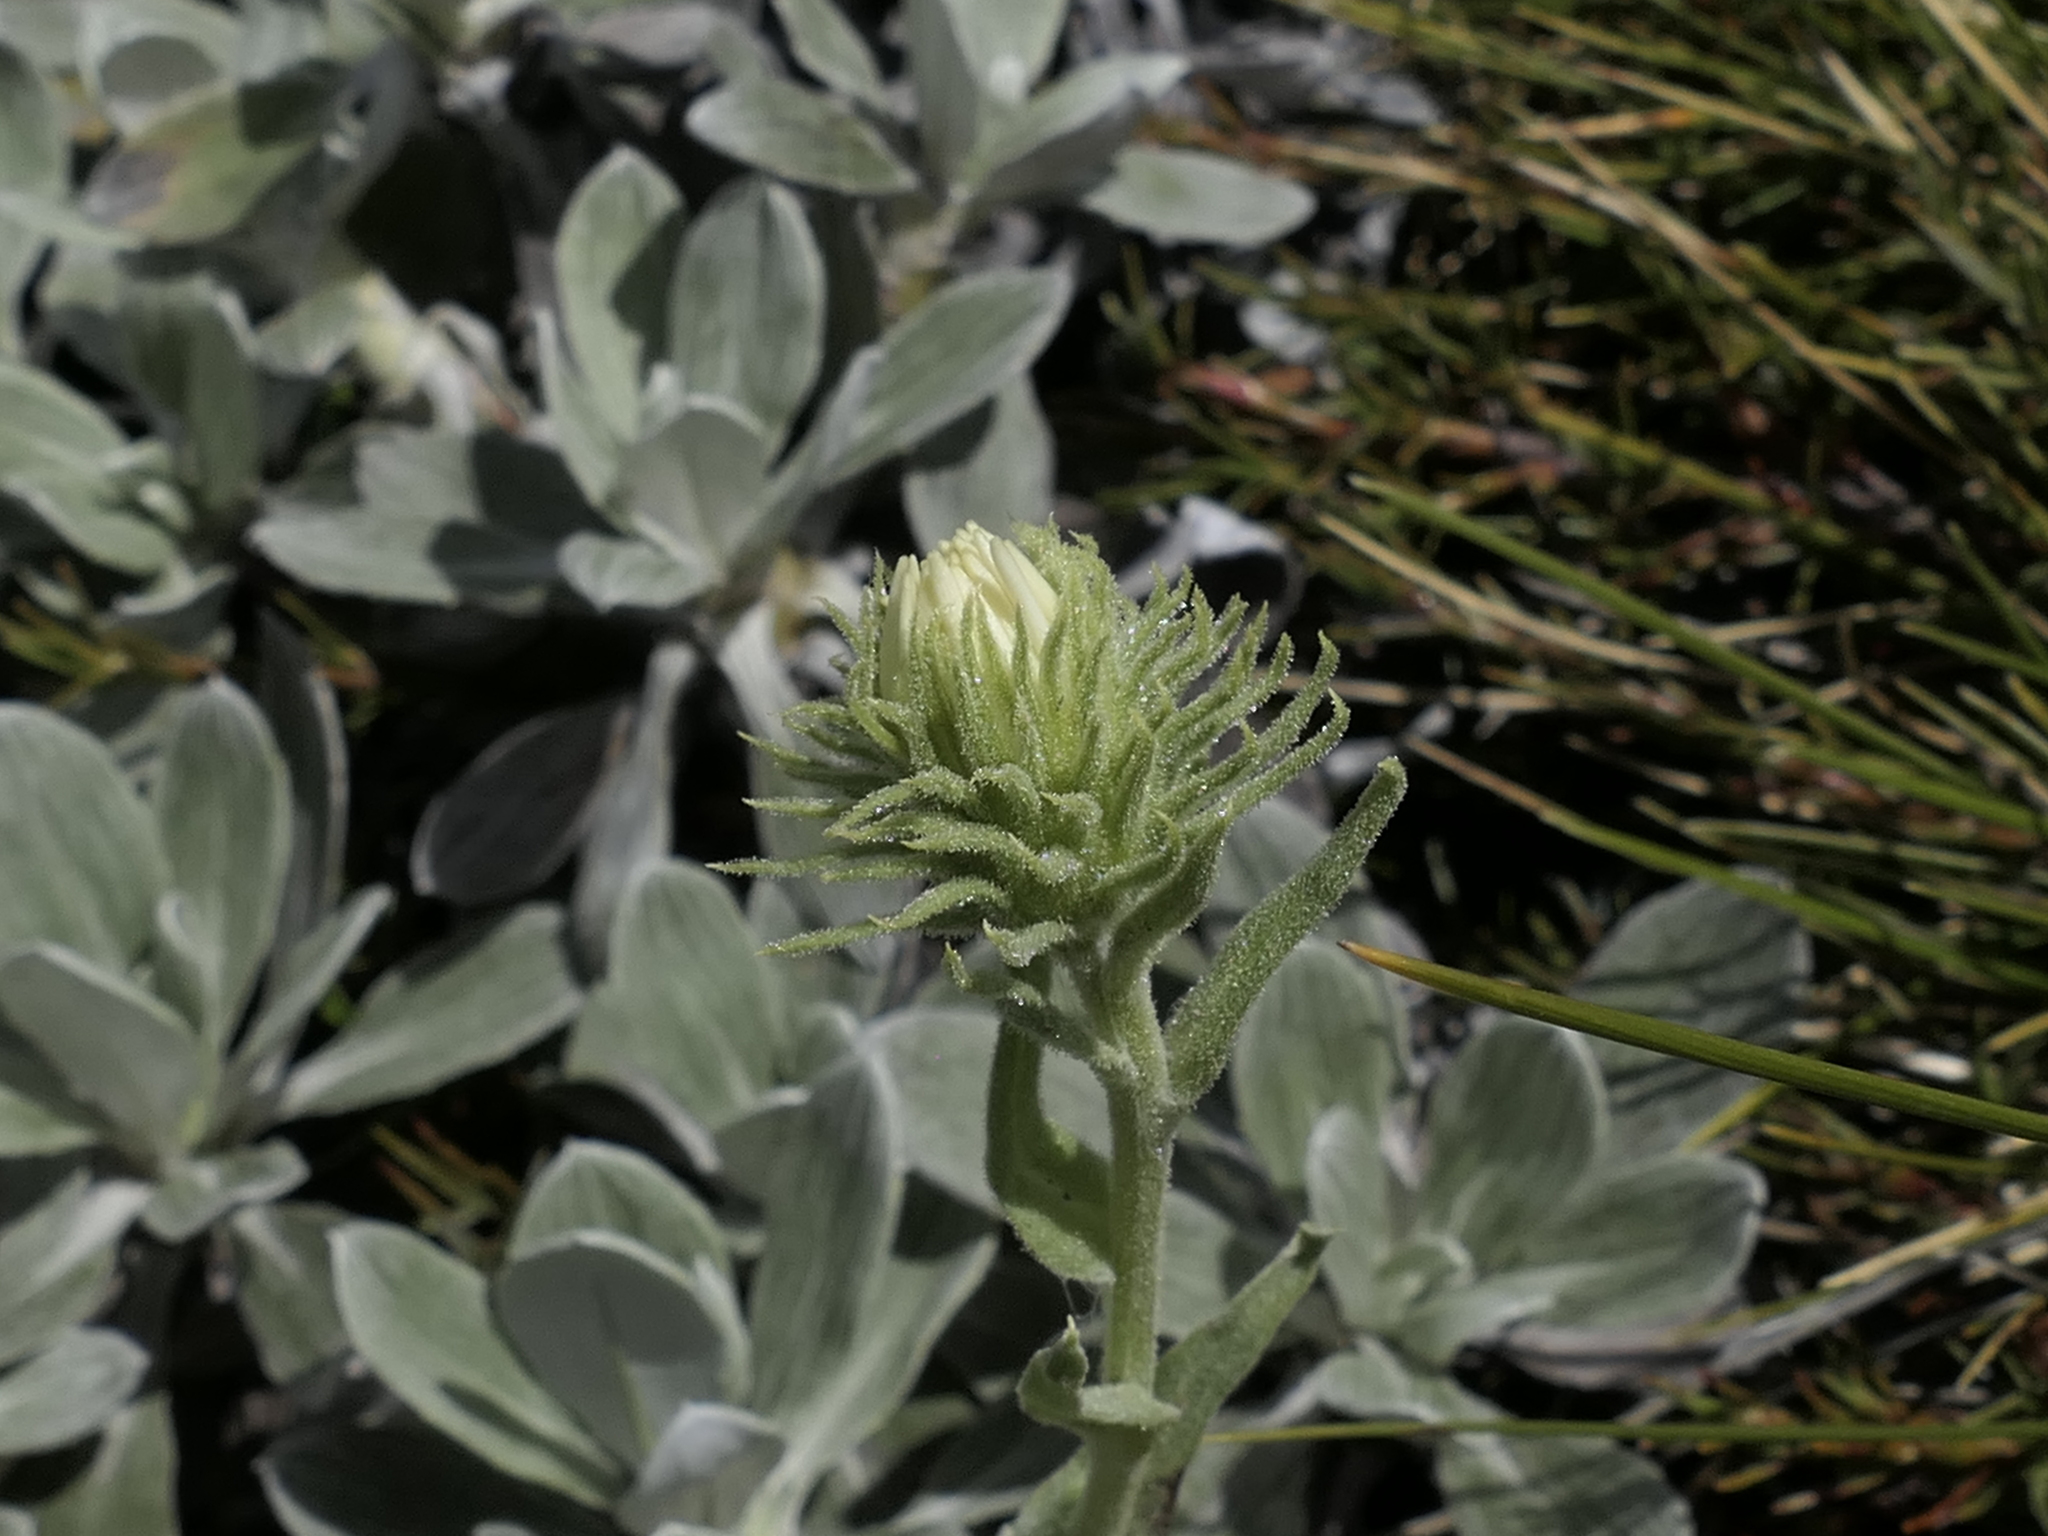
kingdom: Plantae
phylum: Tracheophyta
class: Magnoliopsida
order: Asterales
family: Asteraceae
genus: Celmisia
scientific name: Celmisia discolor
